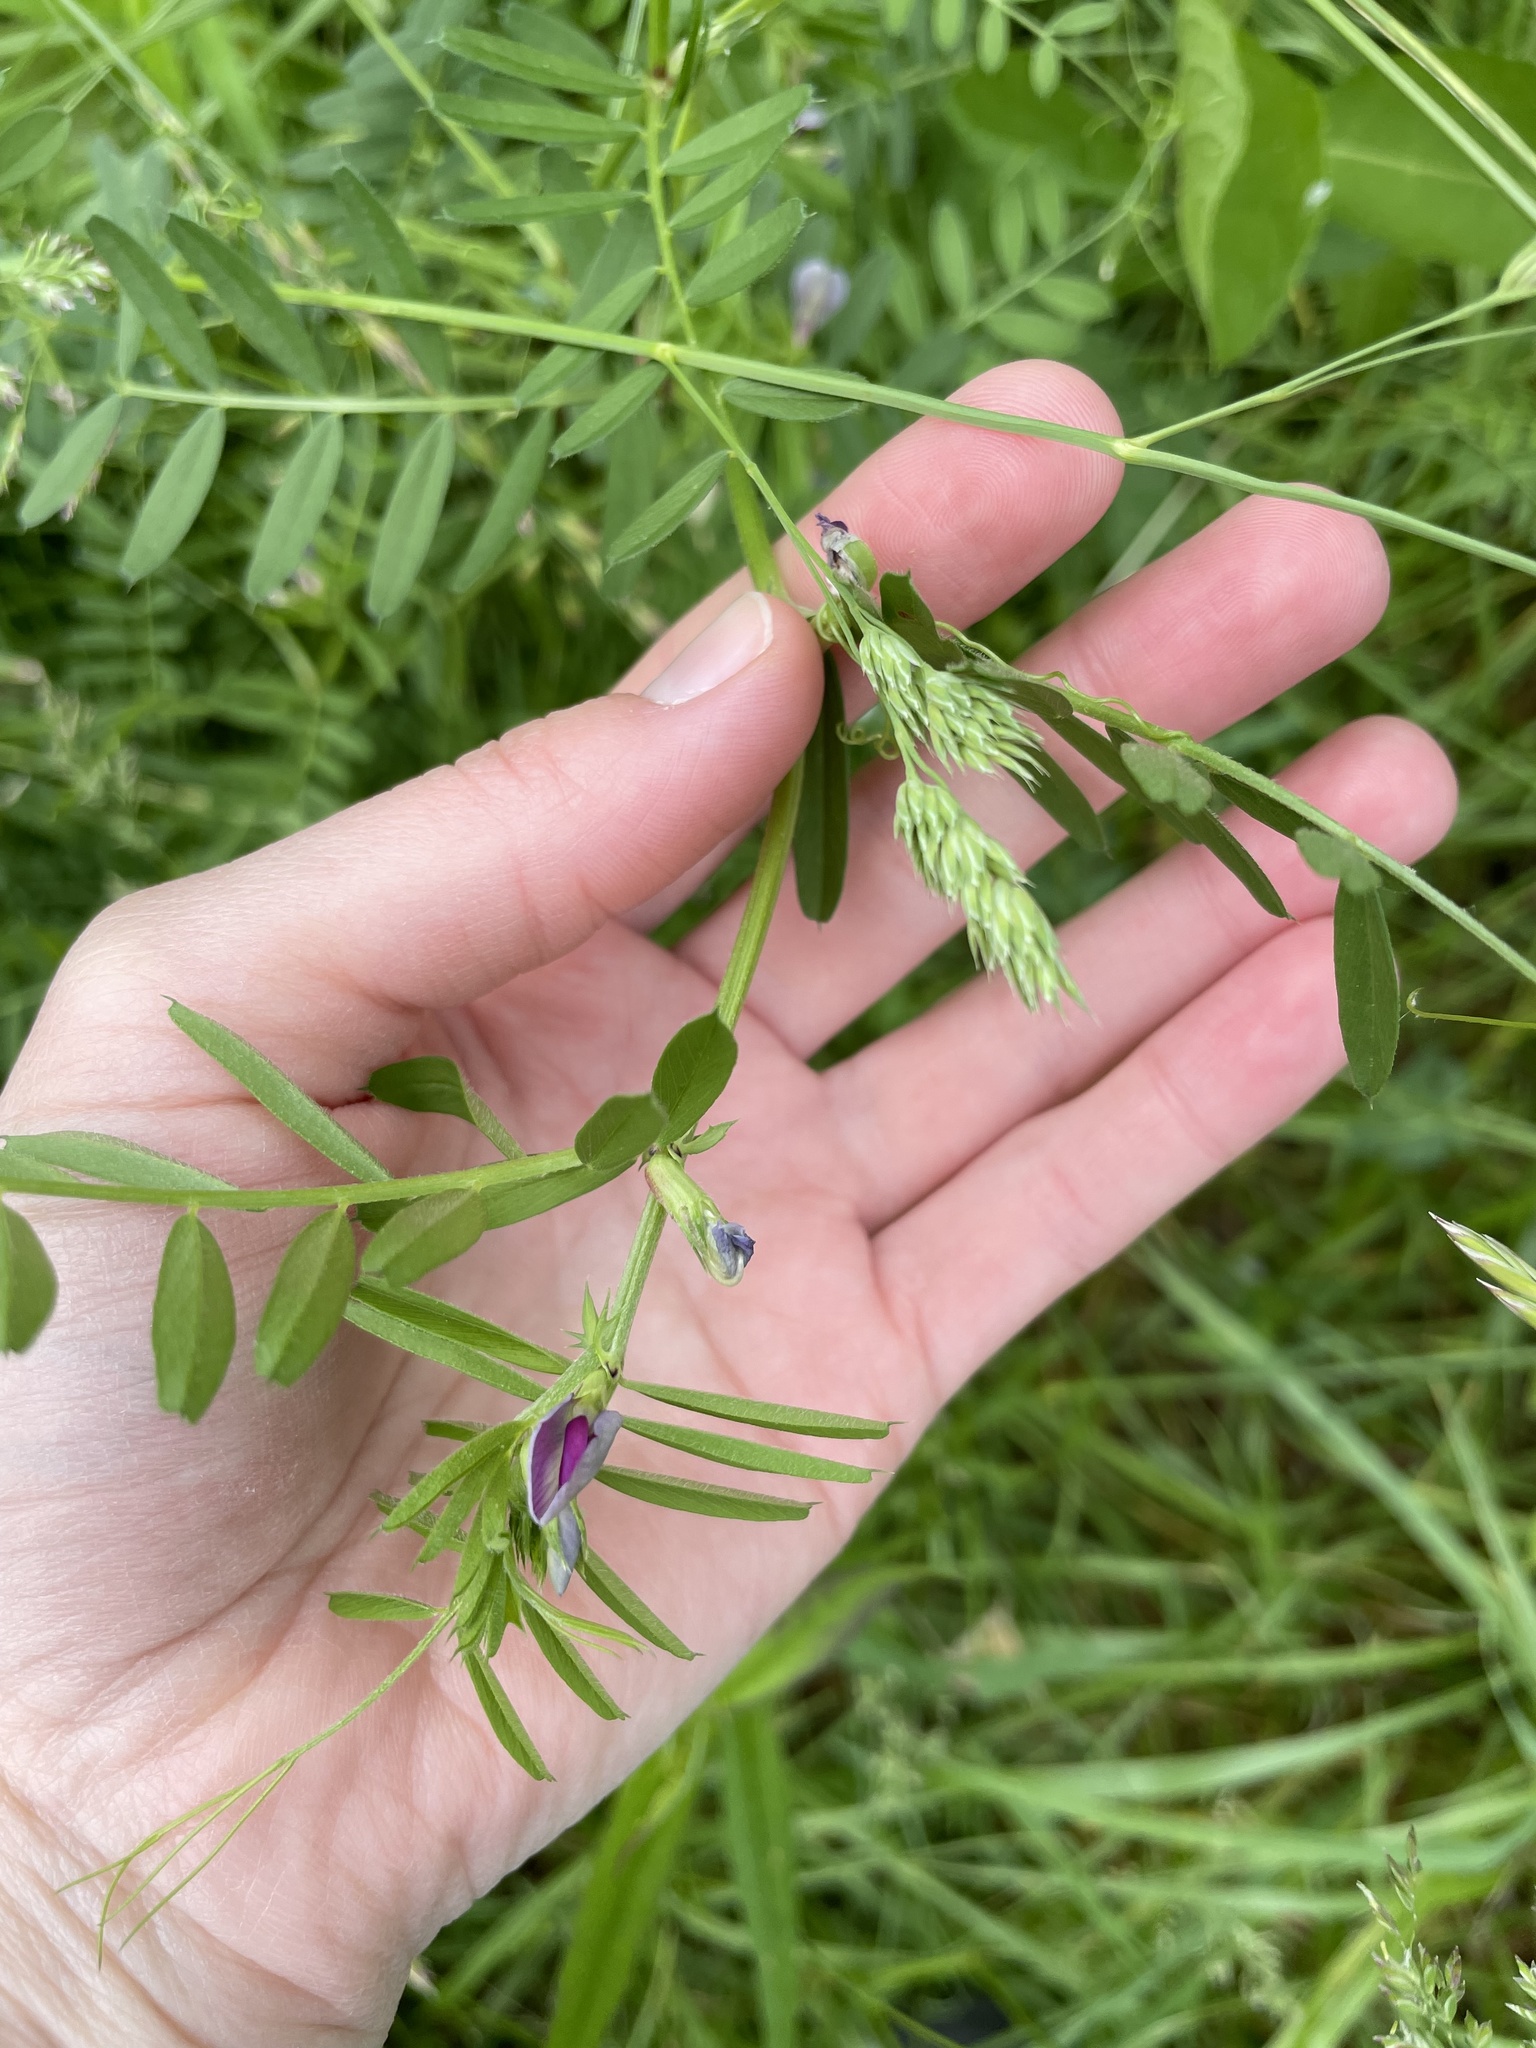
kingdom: Plantae
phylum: Tracheophyta
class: Magnoliopsida
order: Fabales
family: Fabaceae
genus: Vicia
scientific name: Vicia sativa
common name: Garden vetch
